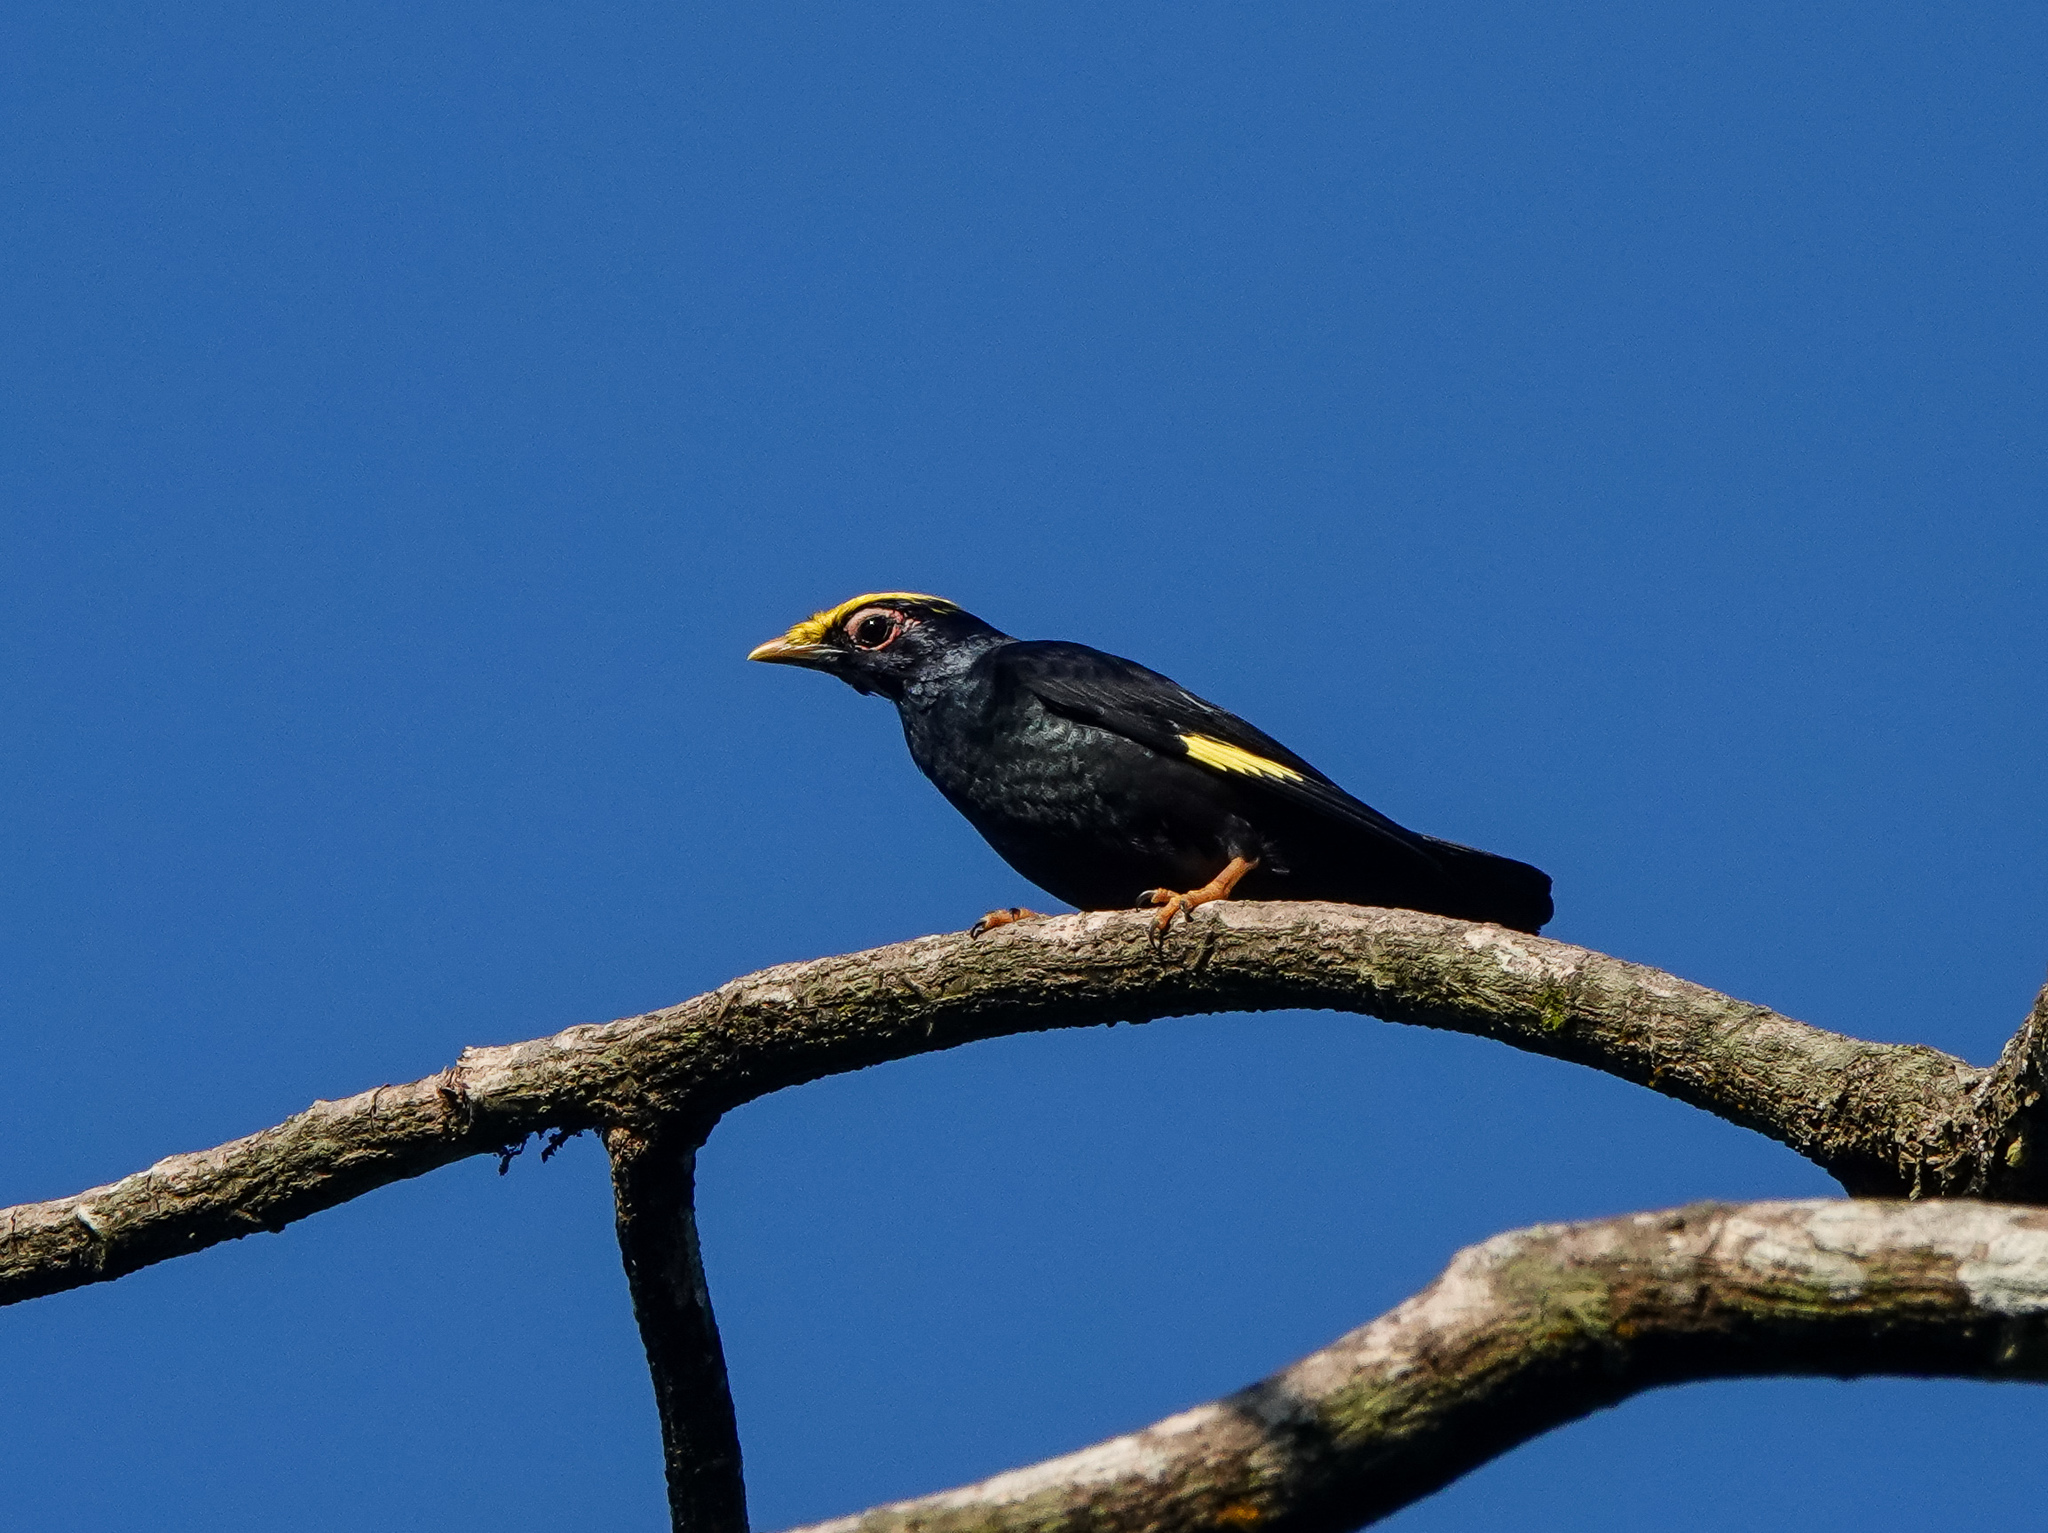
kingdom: Animalia
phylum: Chordata
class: Aves
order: Passeriformes
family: Sturnidae
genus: Ampeliceps
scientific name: Ampeliceps coronatus
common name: Golden-crested myna
